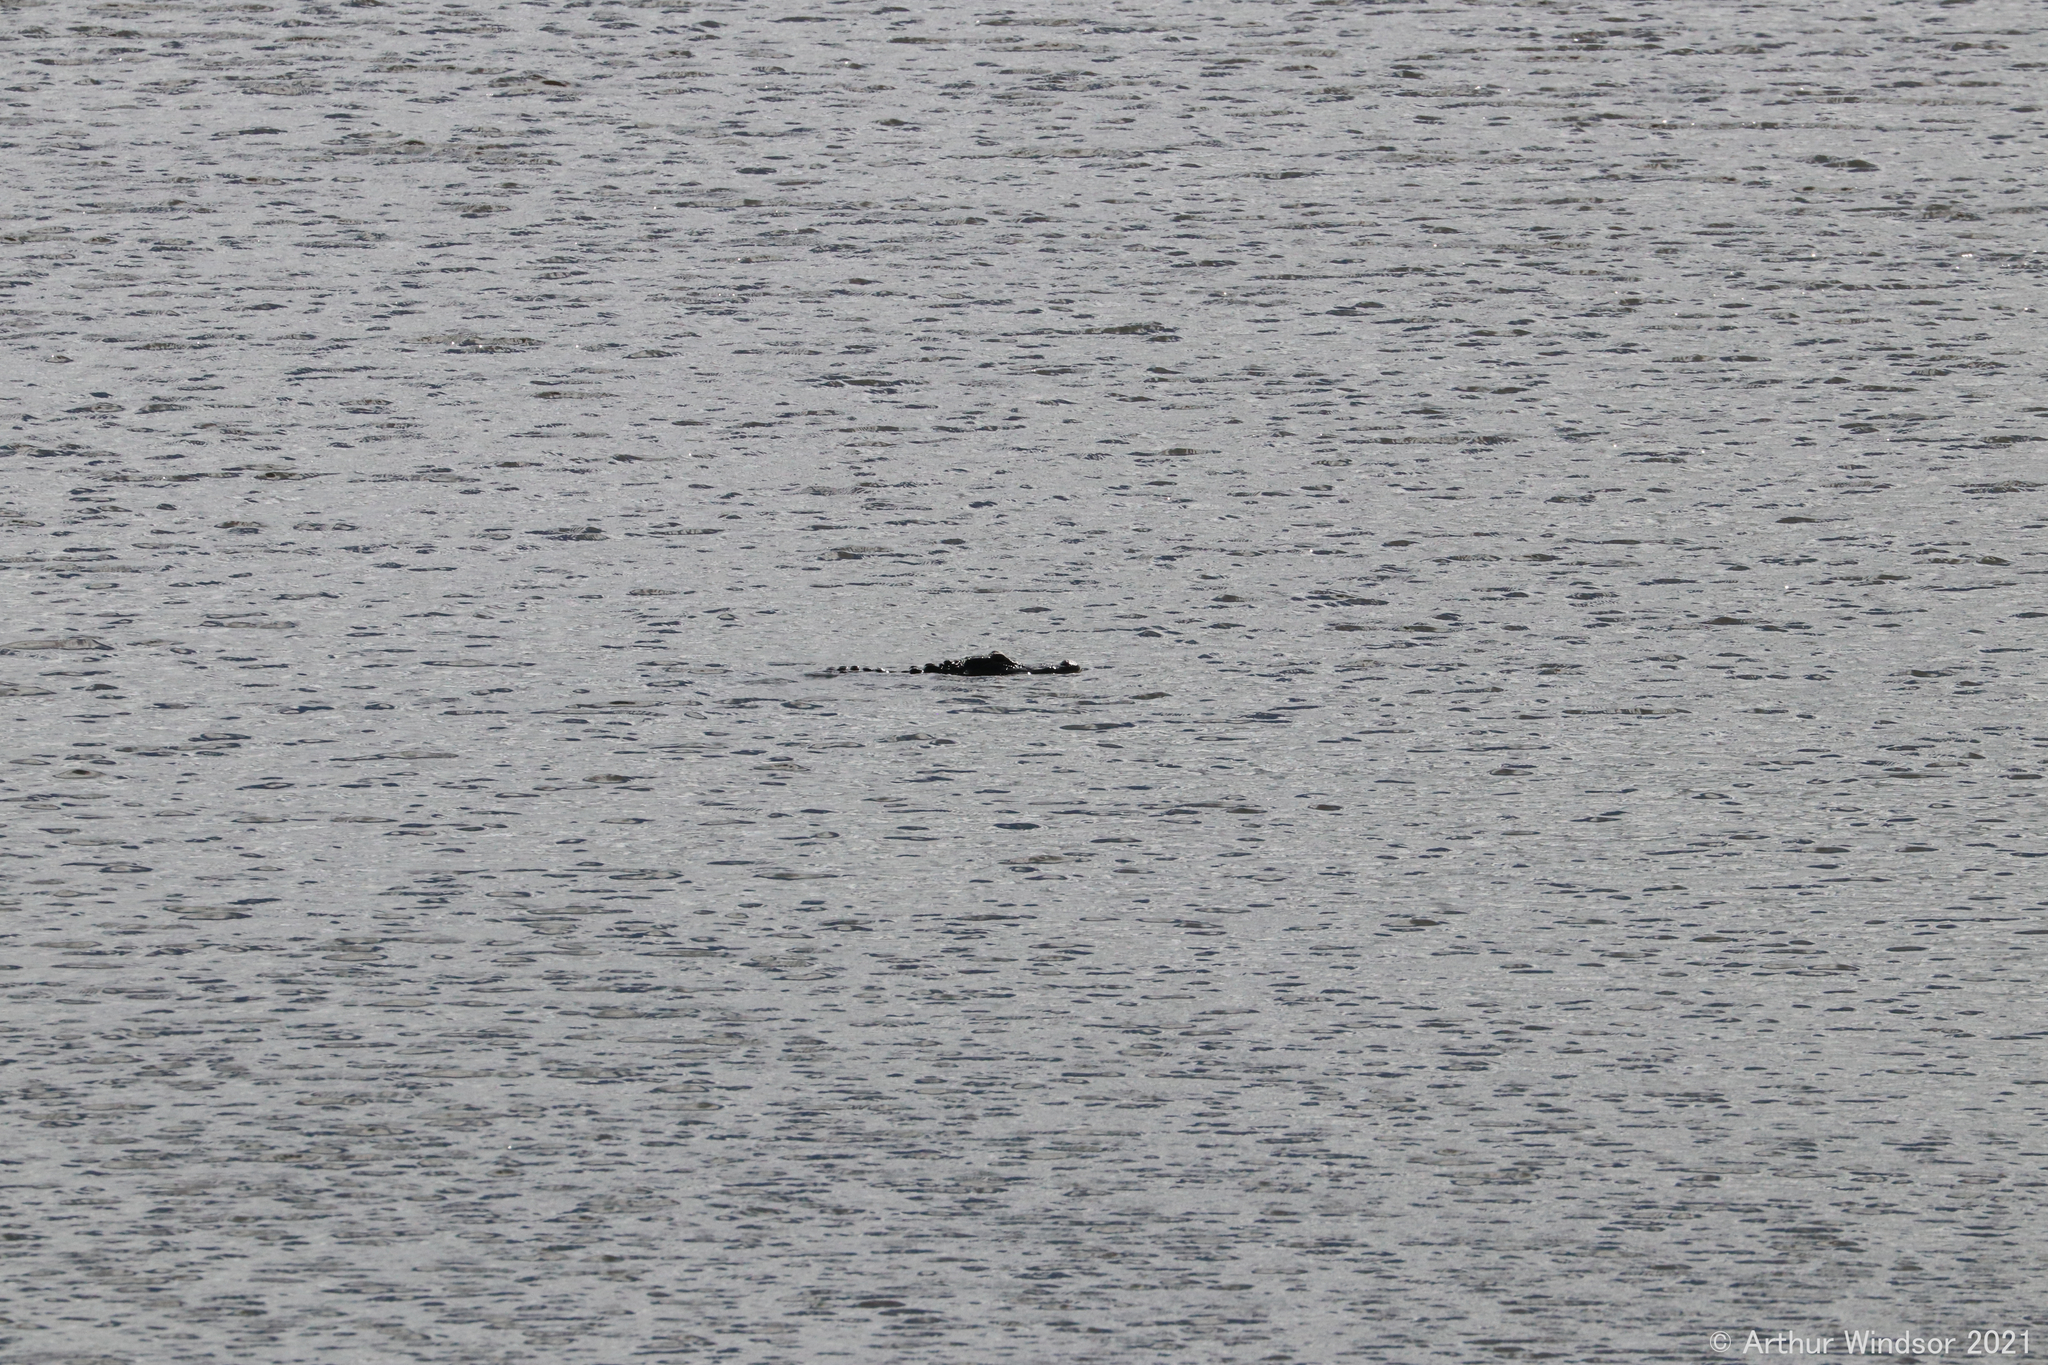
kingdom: Animalia
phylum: Chordata
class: Crocodylia
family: Alligatoridae
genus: Alligator
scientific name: Alligator mississippiensis
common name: American alligator
